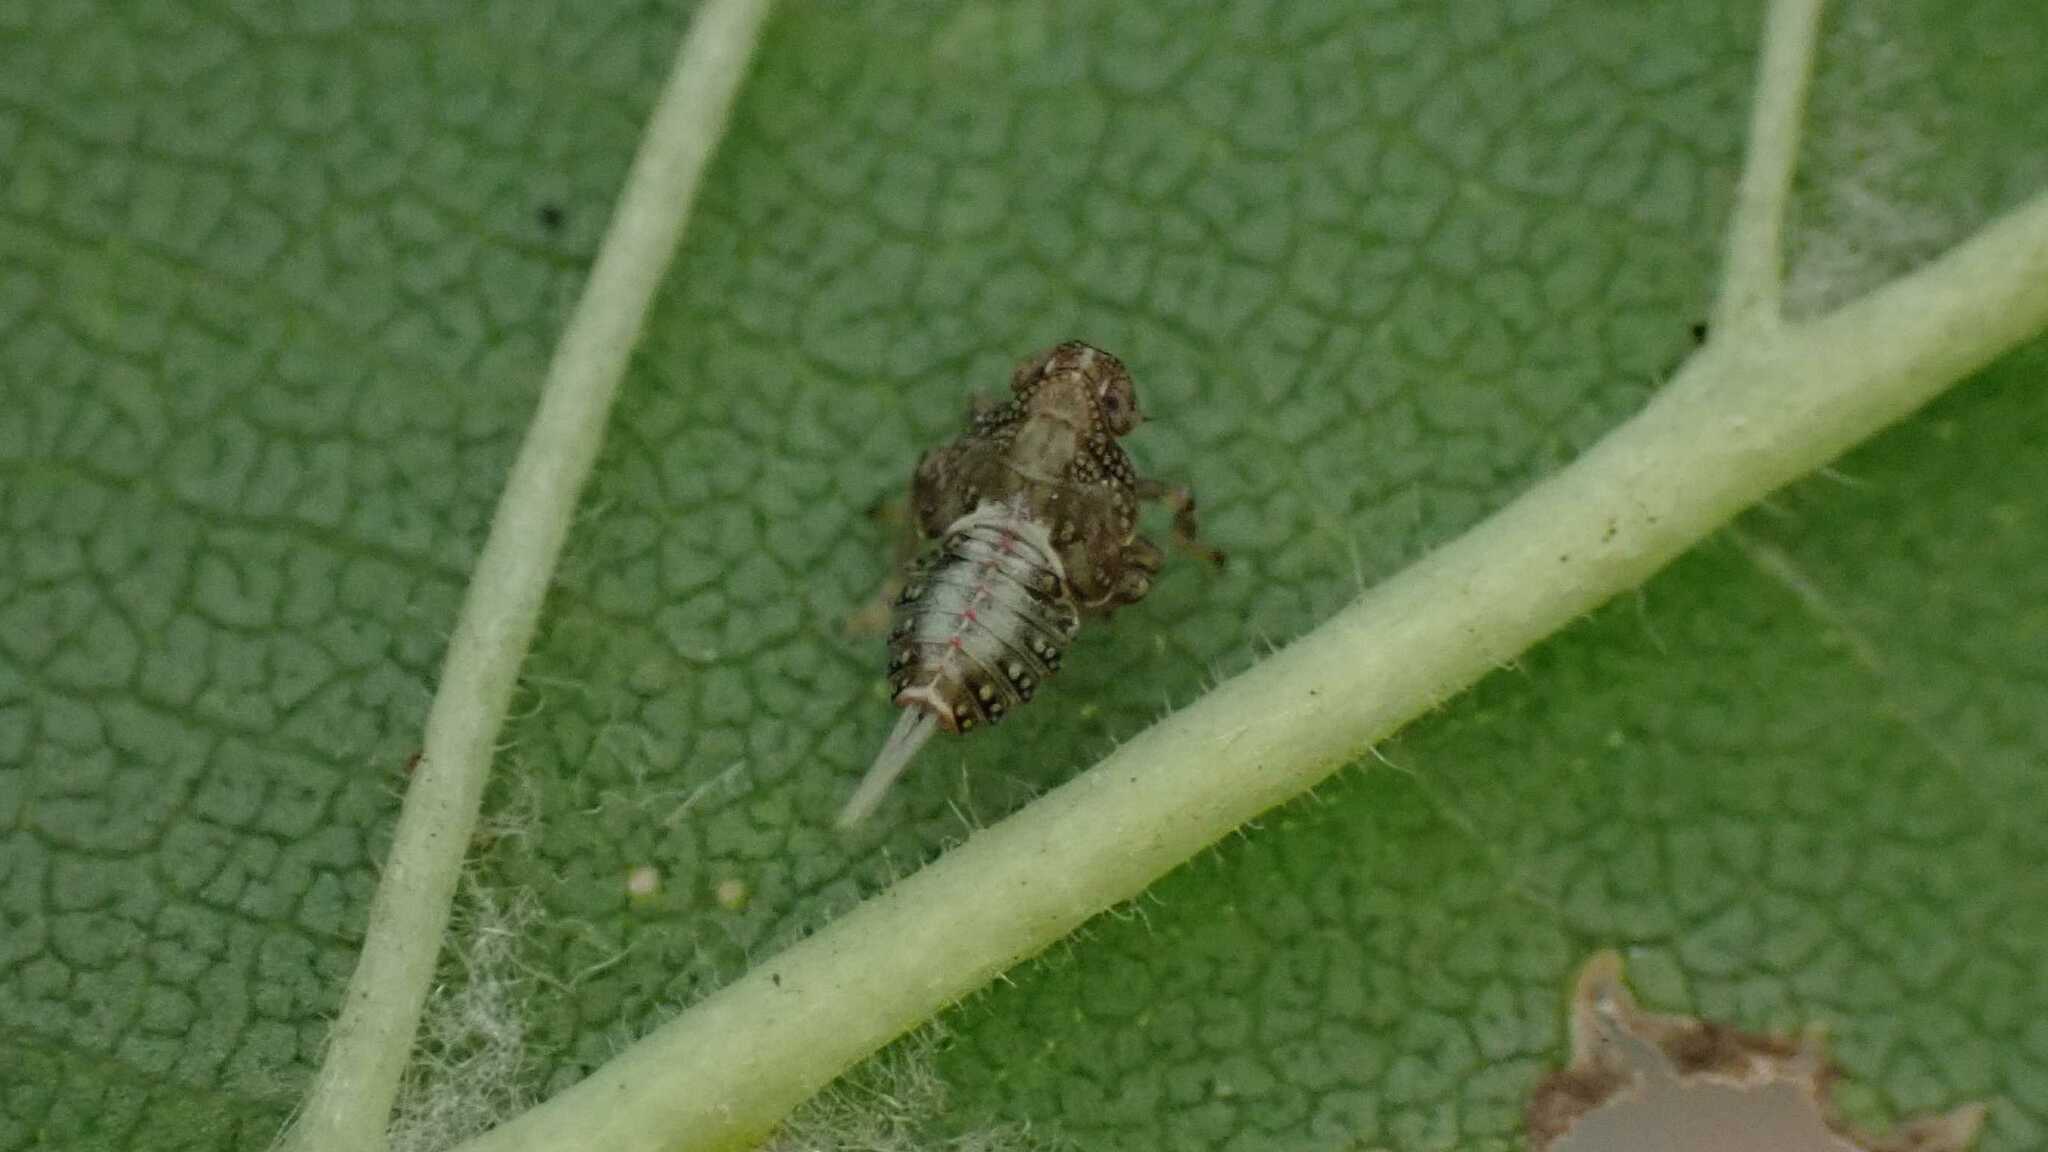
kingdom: Animalia
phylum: Arthropoda
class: Insecta
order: Hemiptera
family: Issidae
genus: Issus
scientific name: Issus coleoptratus
